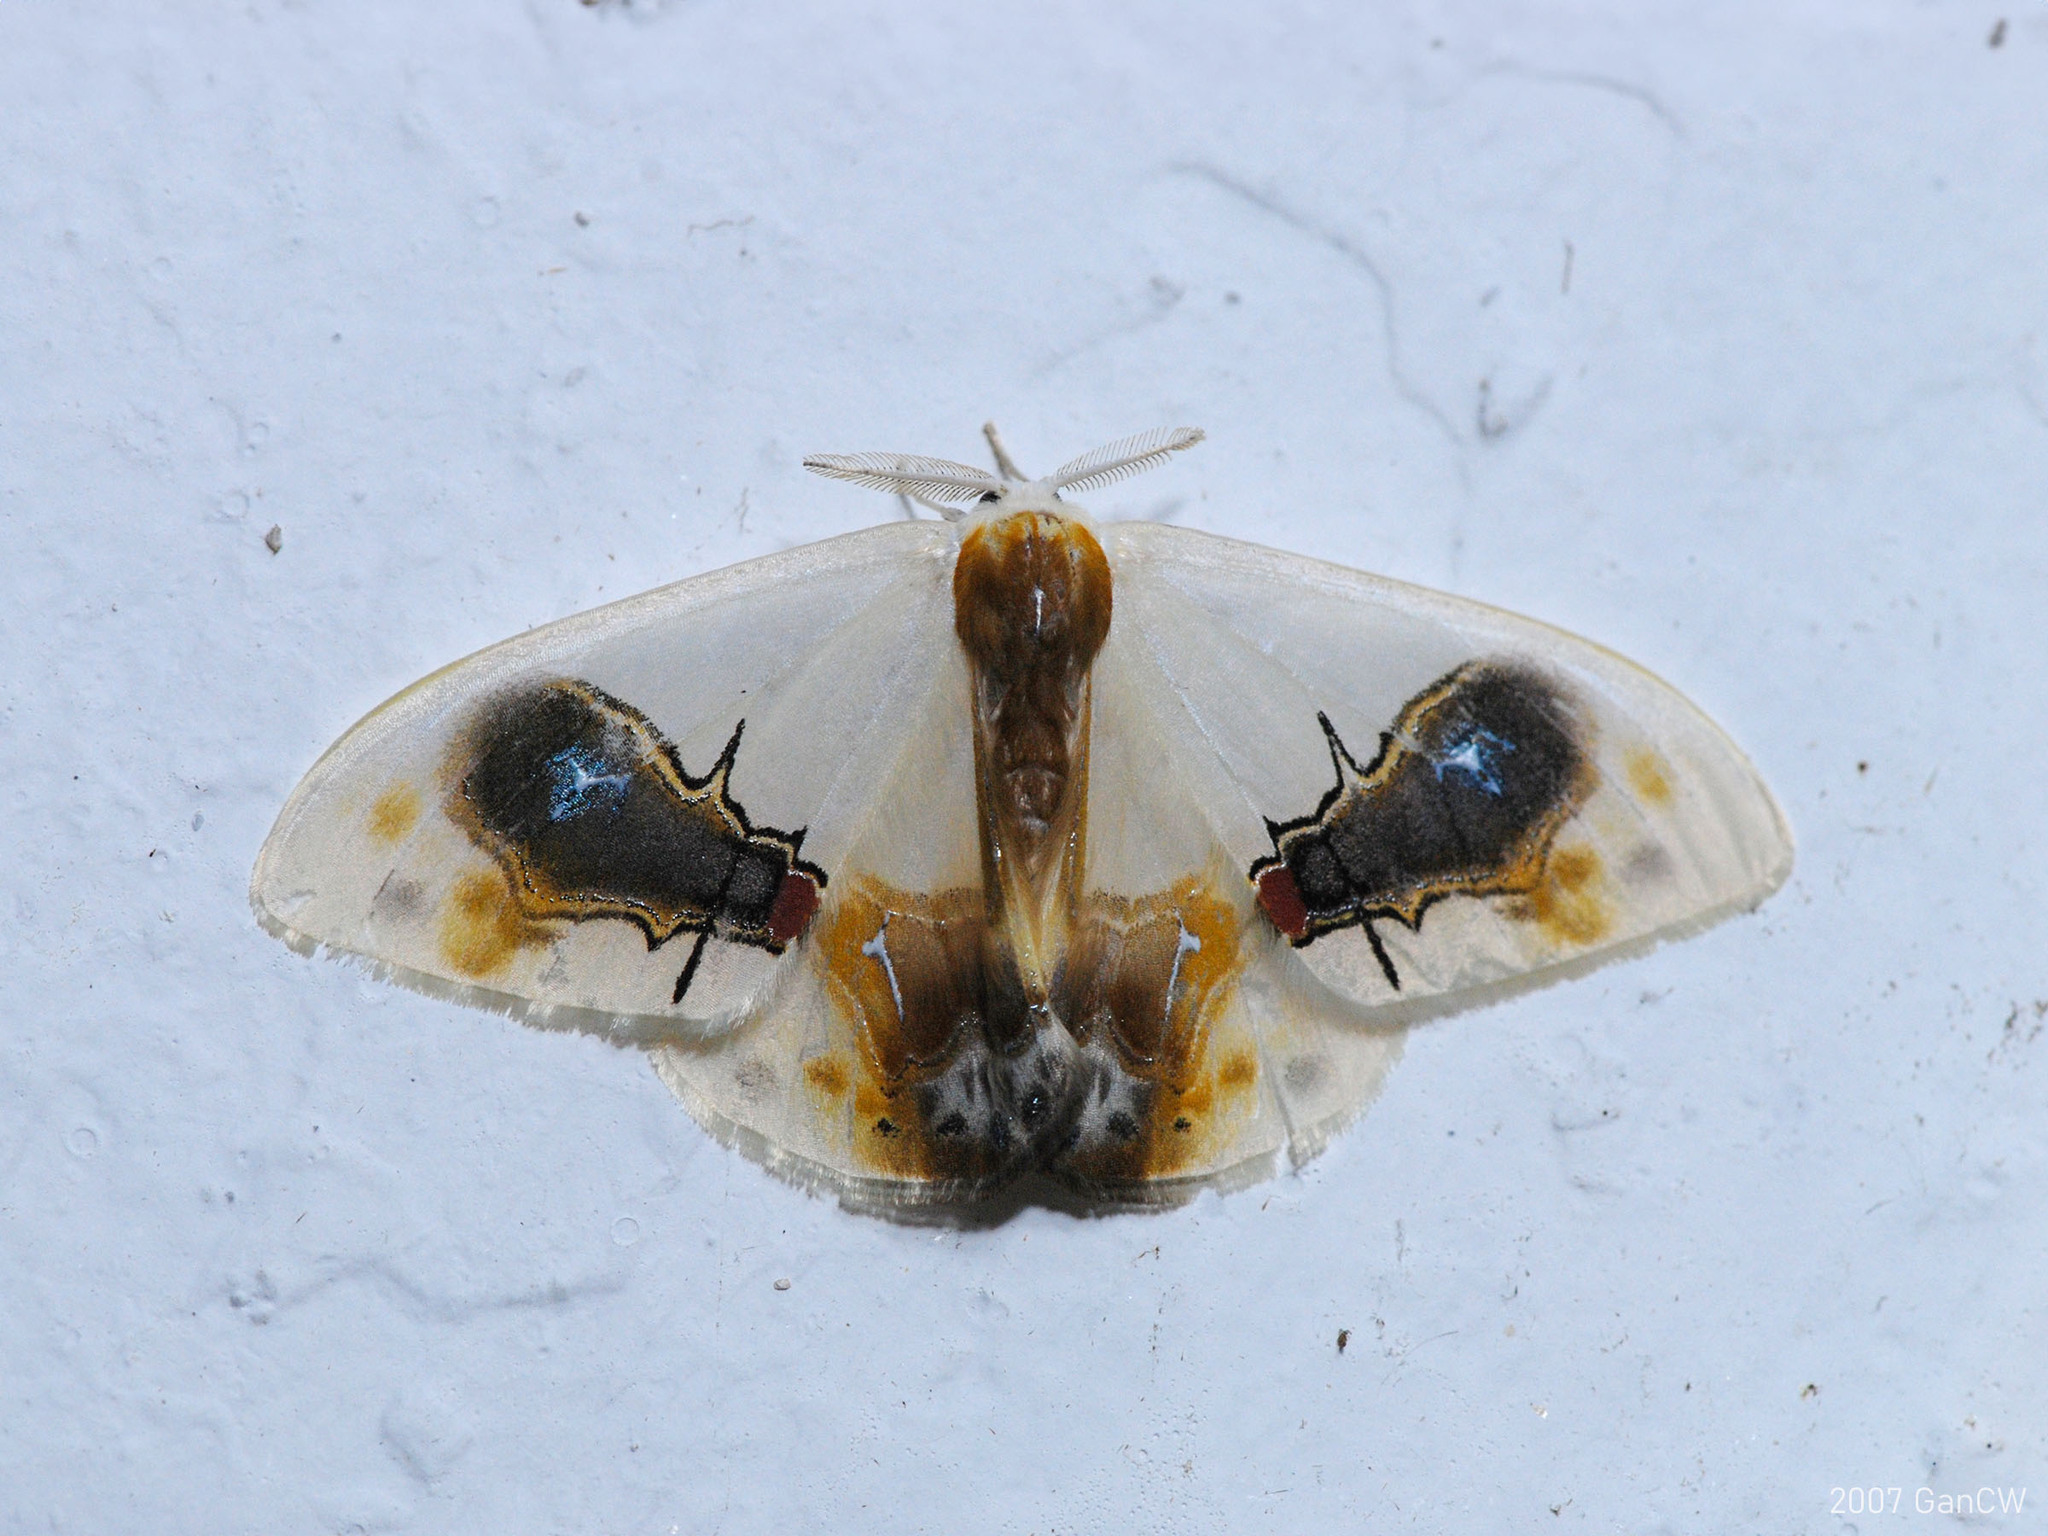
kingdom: Animalia
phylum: Arthropoda
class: Insecta
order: Lepidoptera
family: Drepanidae
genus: Macrocilix
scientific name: Macrocilix maia
